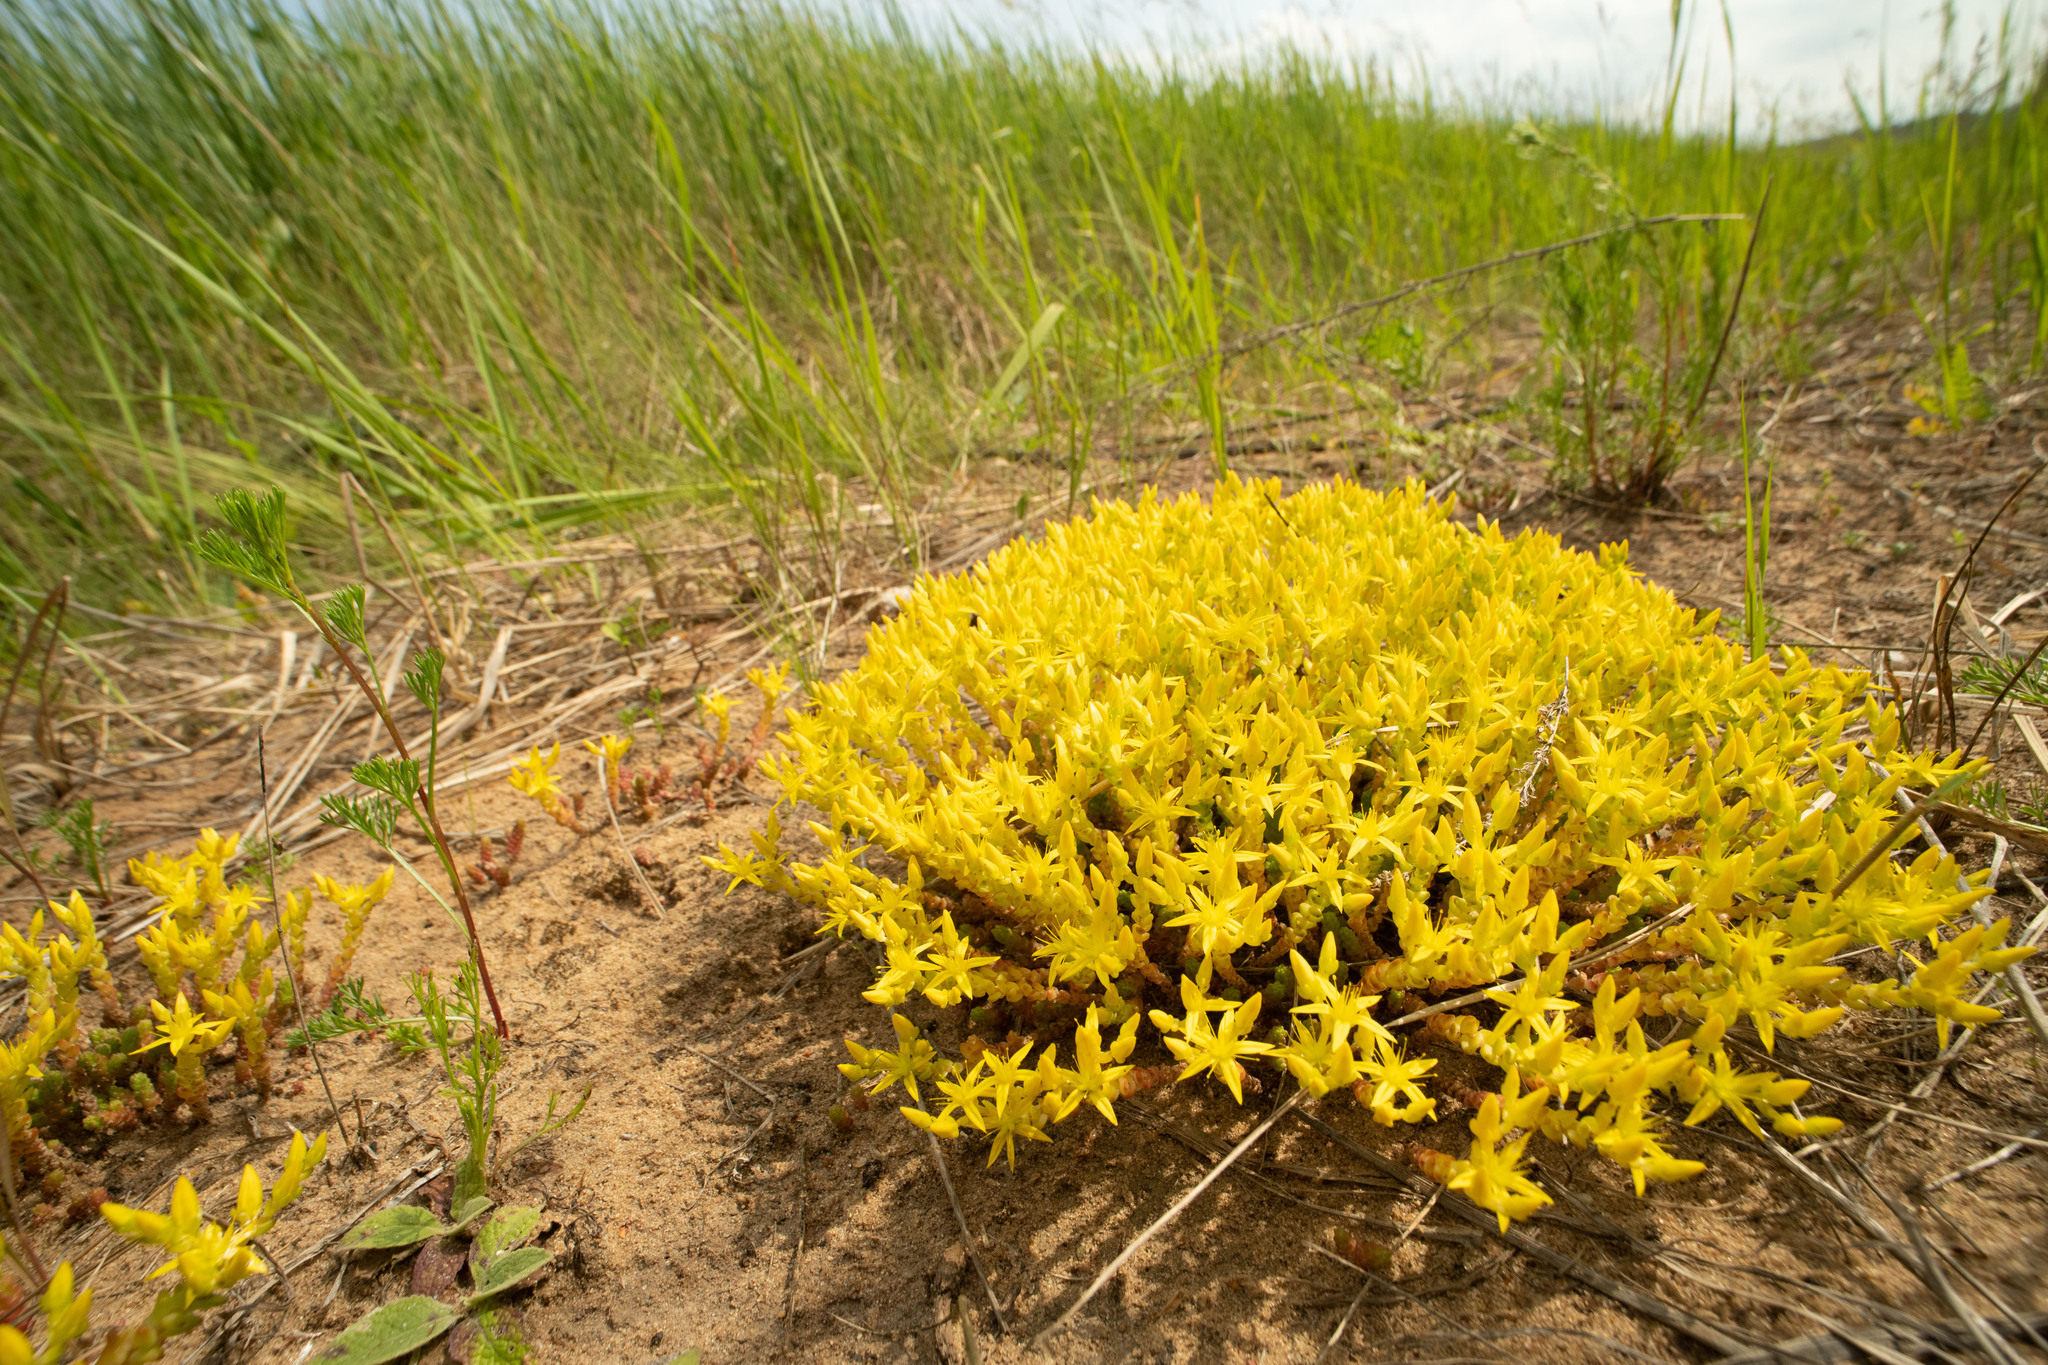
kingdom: Plantae
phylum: Tracheophyta
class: Magnoliopsida
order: Saxifragales
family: Crassulaceae
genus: Sedum
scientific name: Sedum acre
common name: Biting stonecrop
